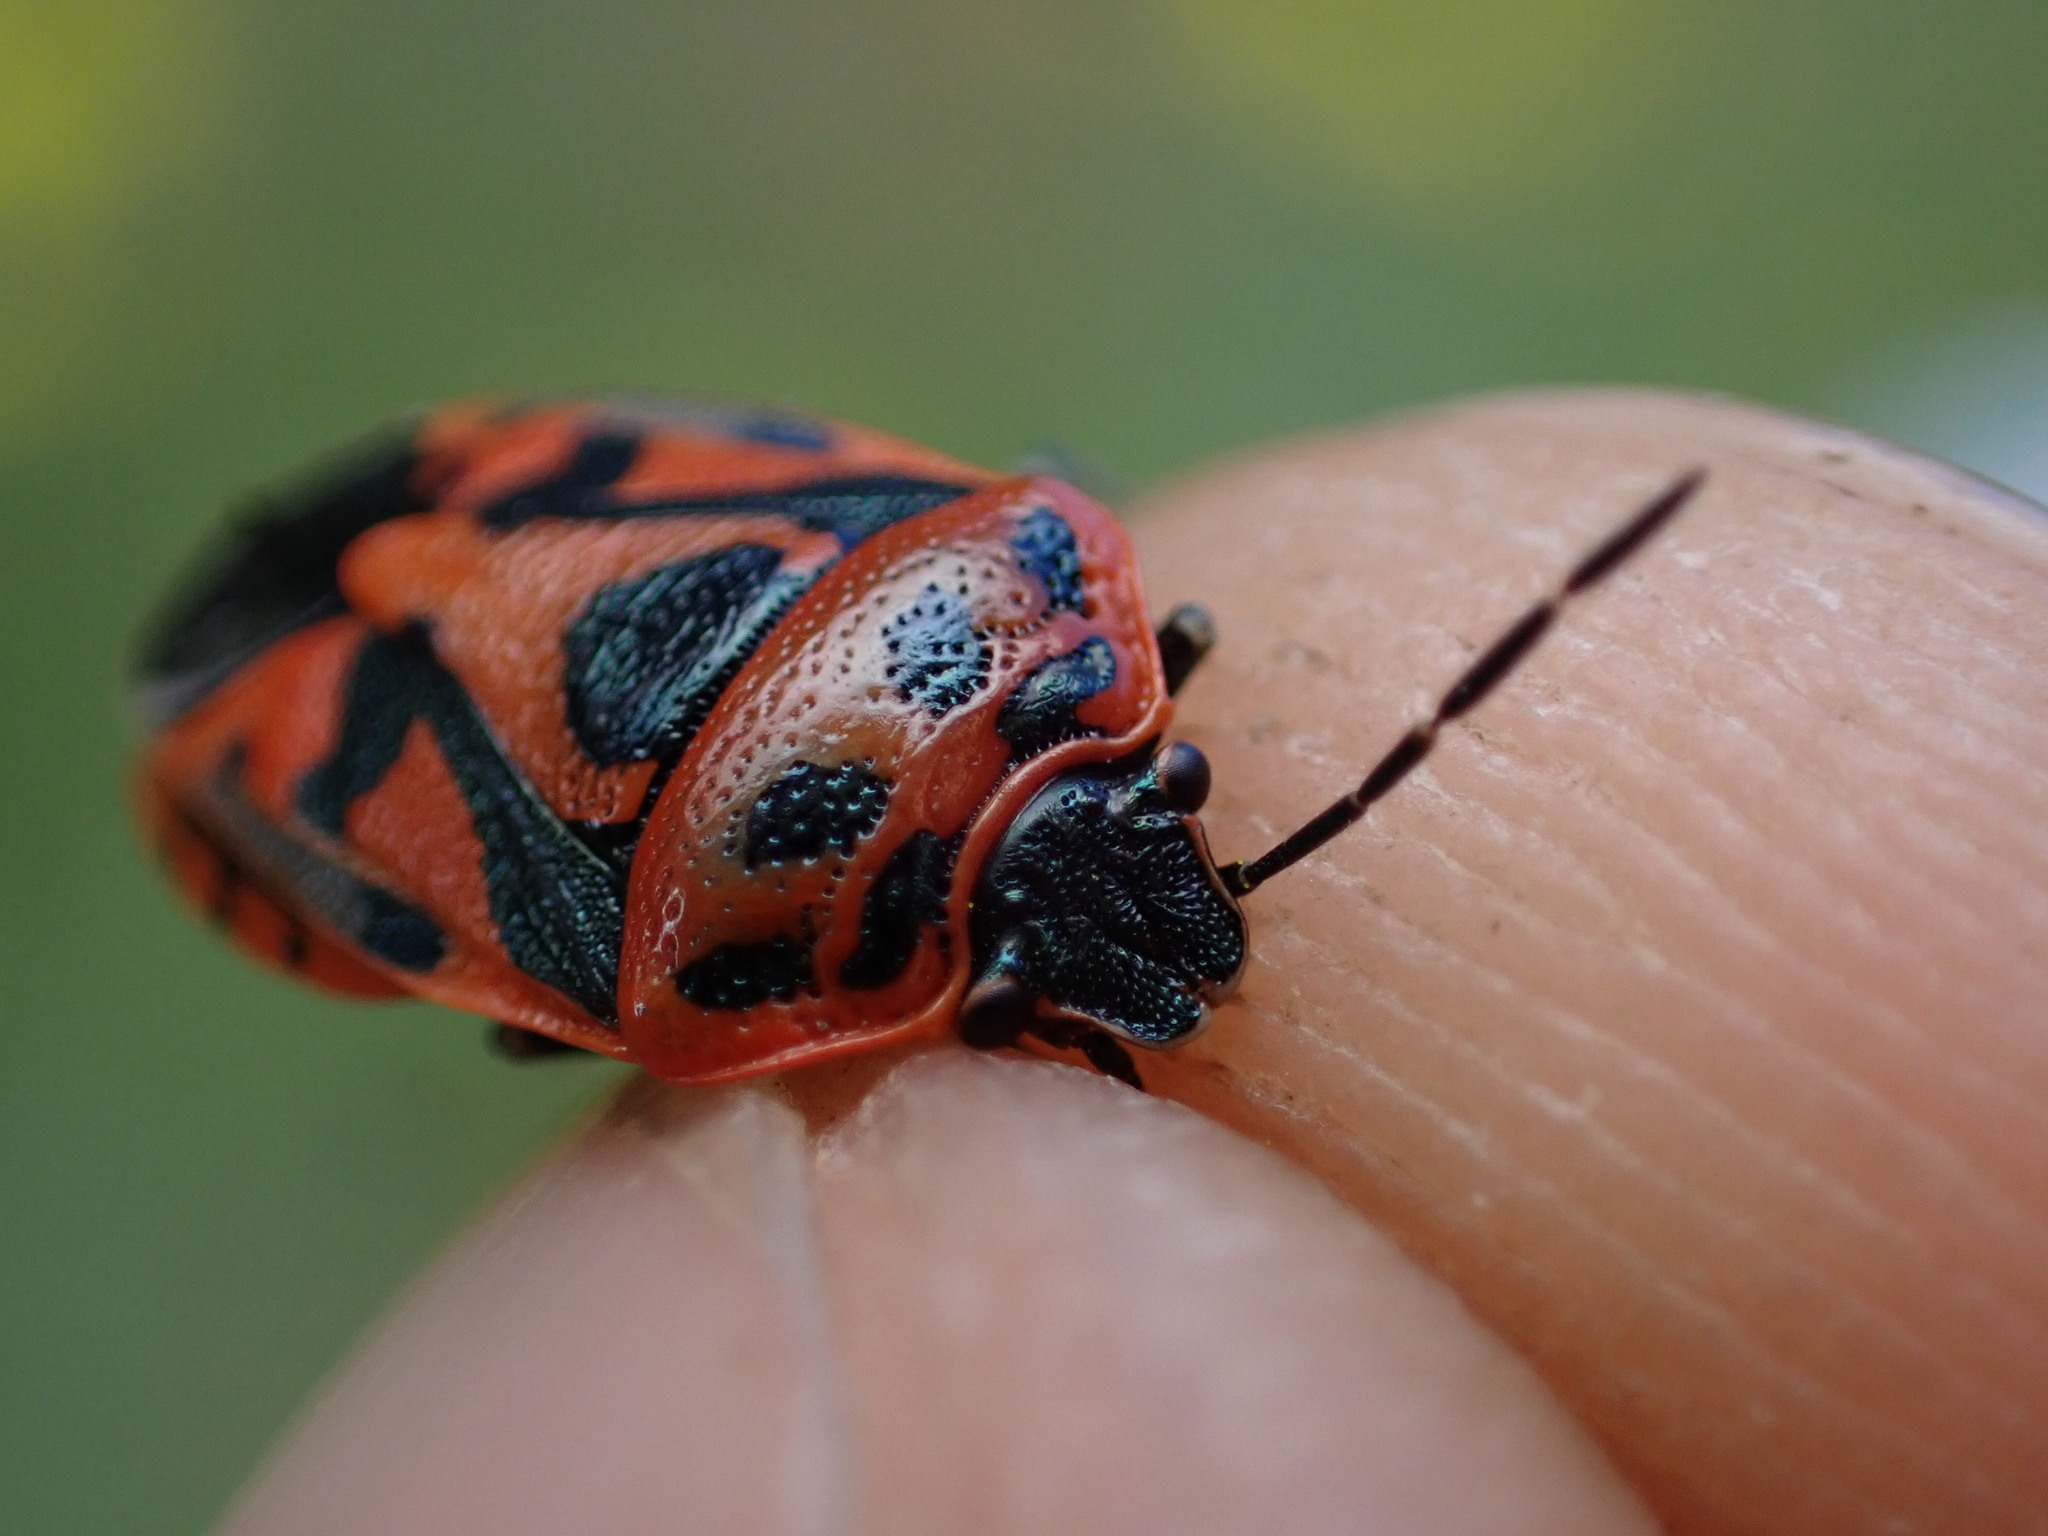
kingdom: Animalia
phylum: Arthropoda
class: Insecta
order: Hemiptera
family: Pentatomidae
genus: Eurydema
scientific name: Eurydema ornata
